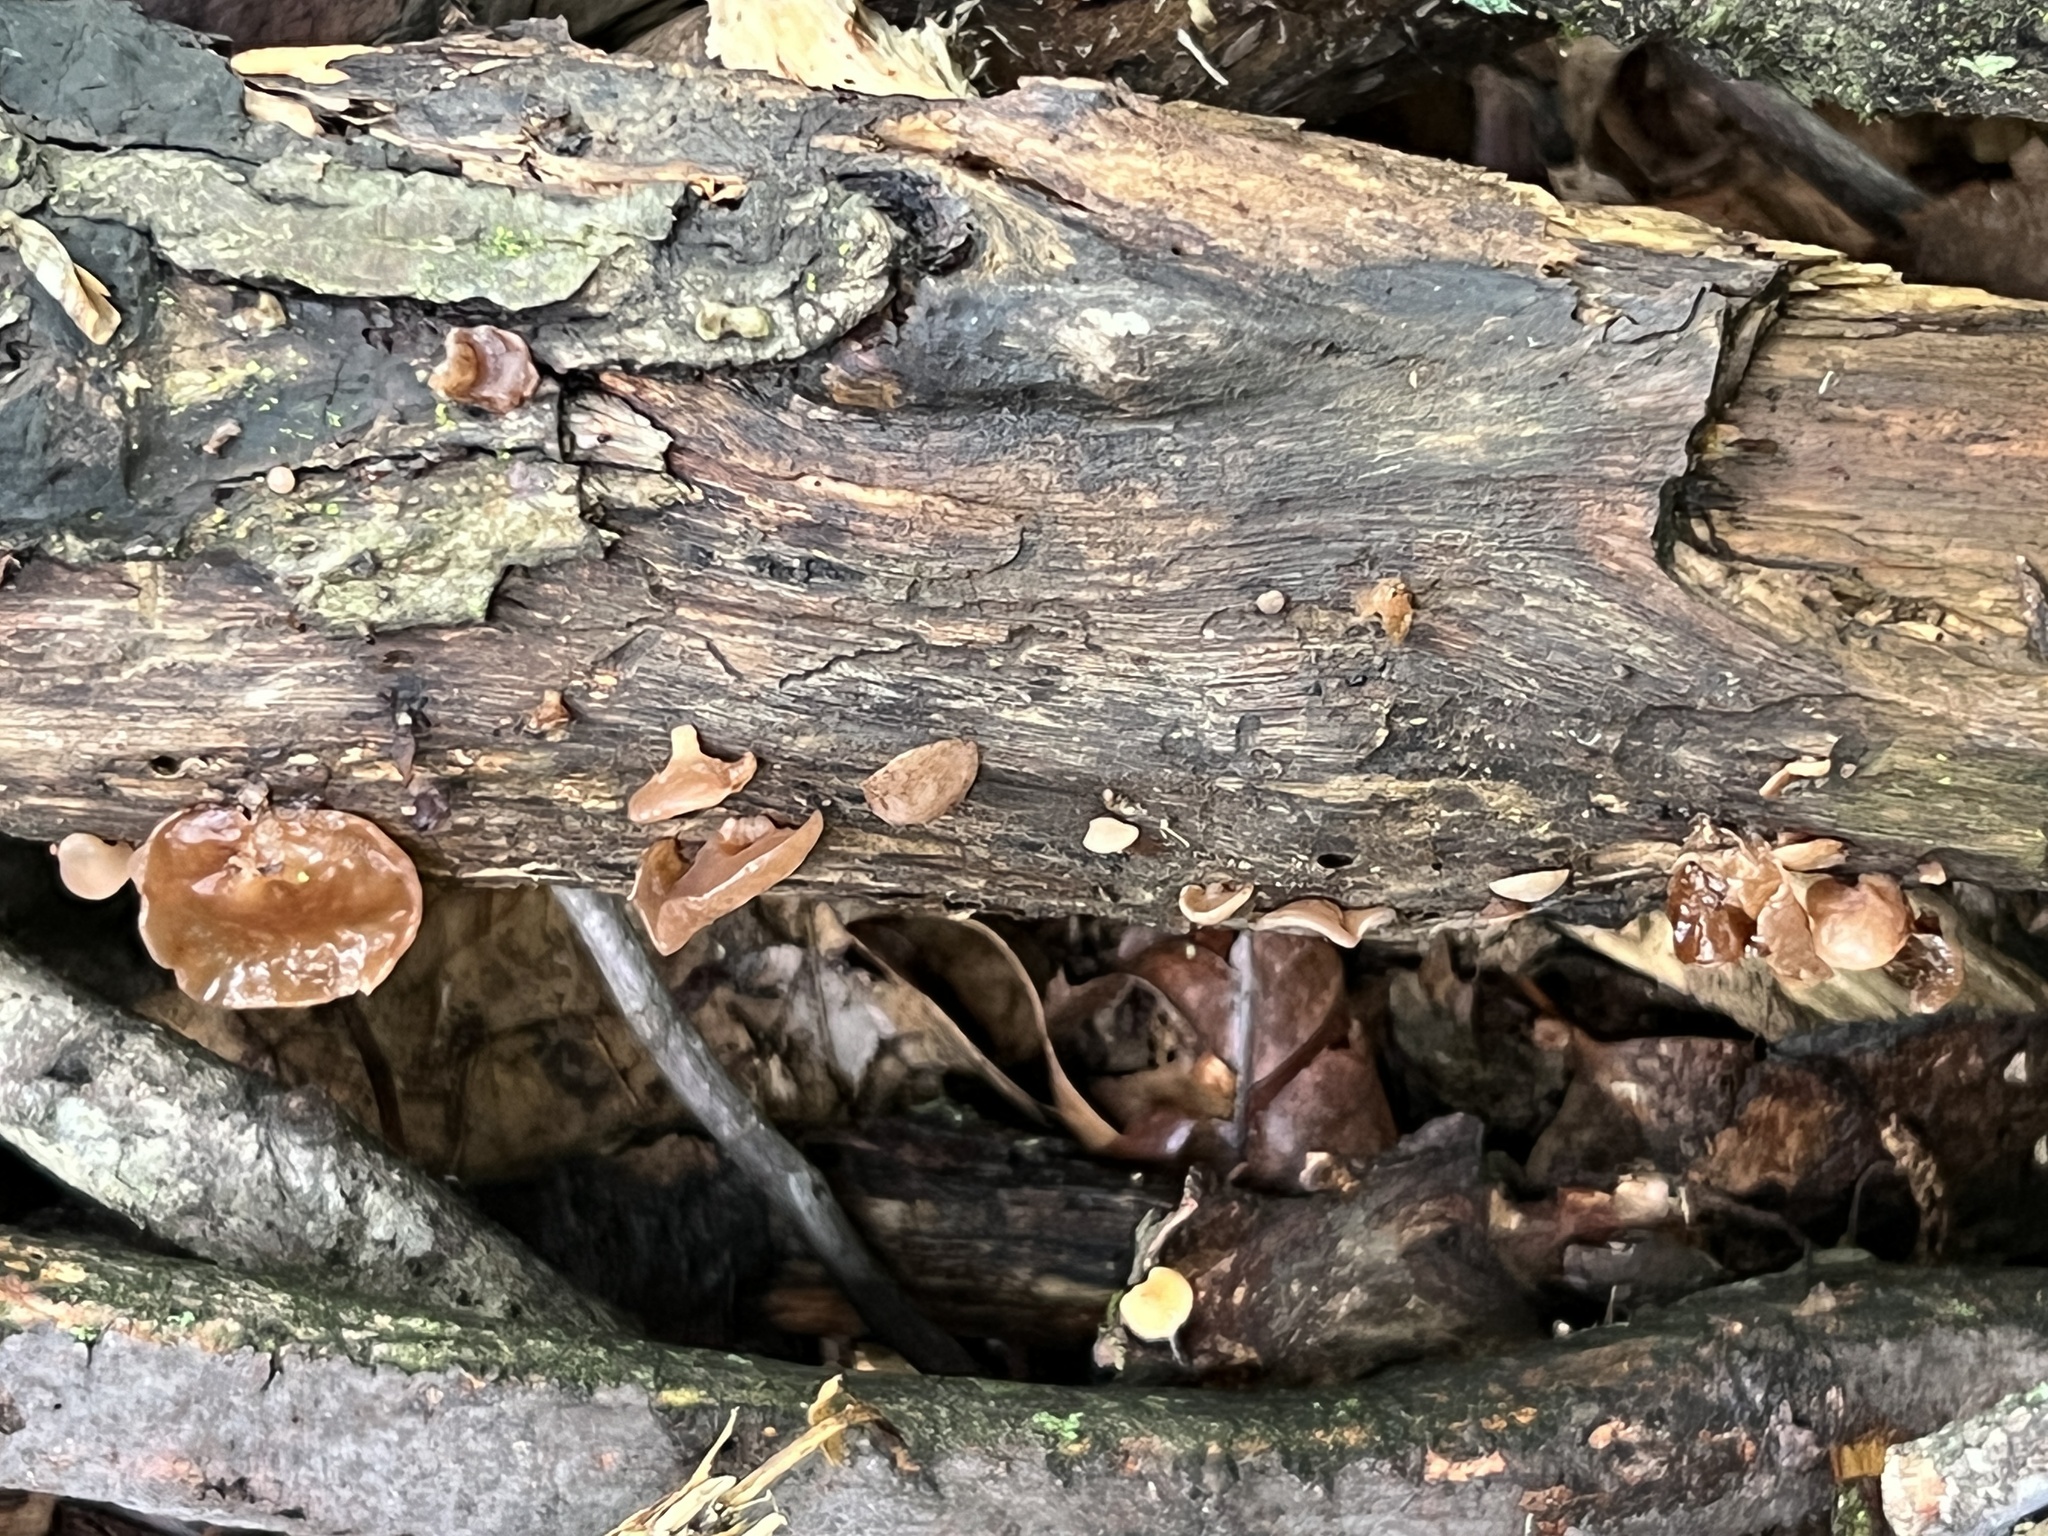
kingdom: Fungi
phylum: Basidiomycota
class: Agaricomycetes
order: Auriculariales
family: Auriculariaceae
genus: Auricularia
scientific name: Auricularia angiospermarum
